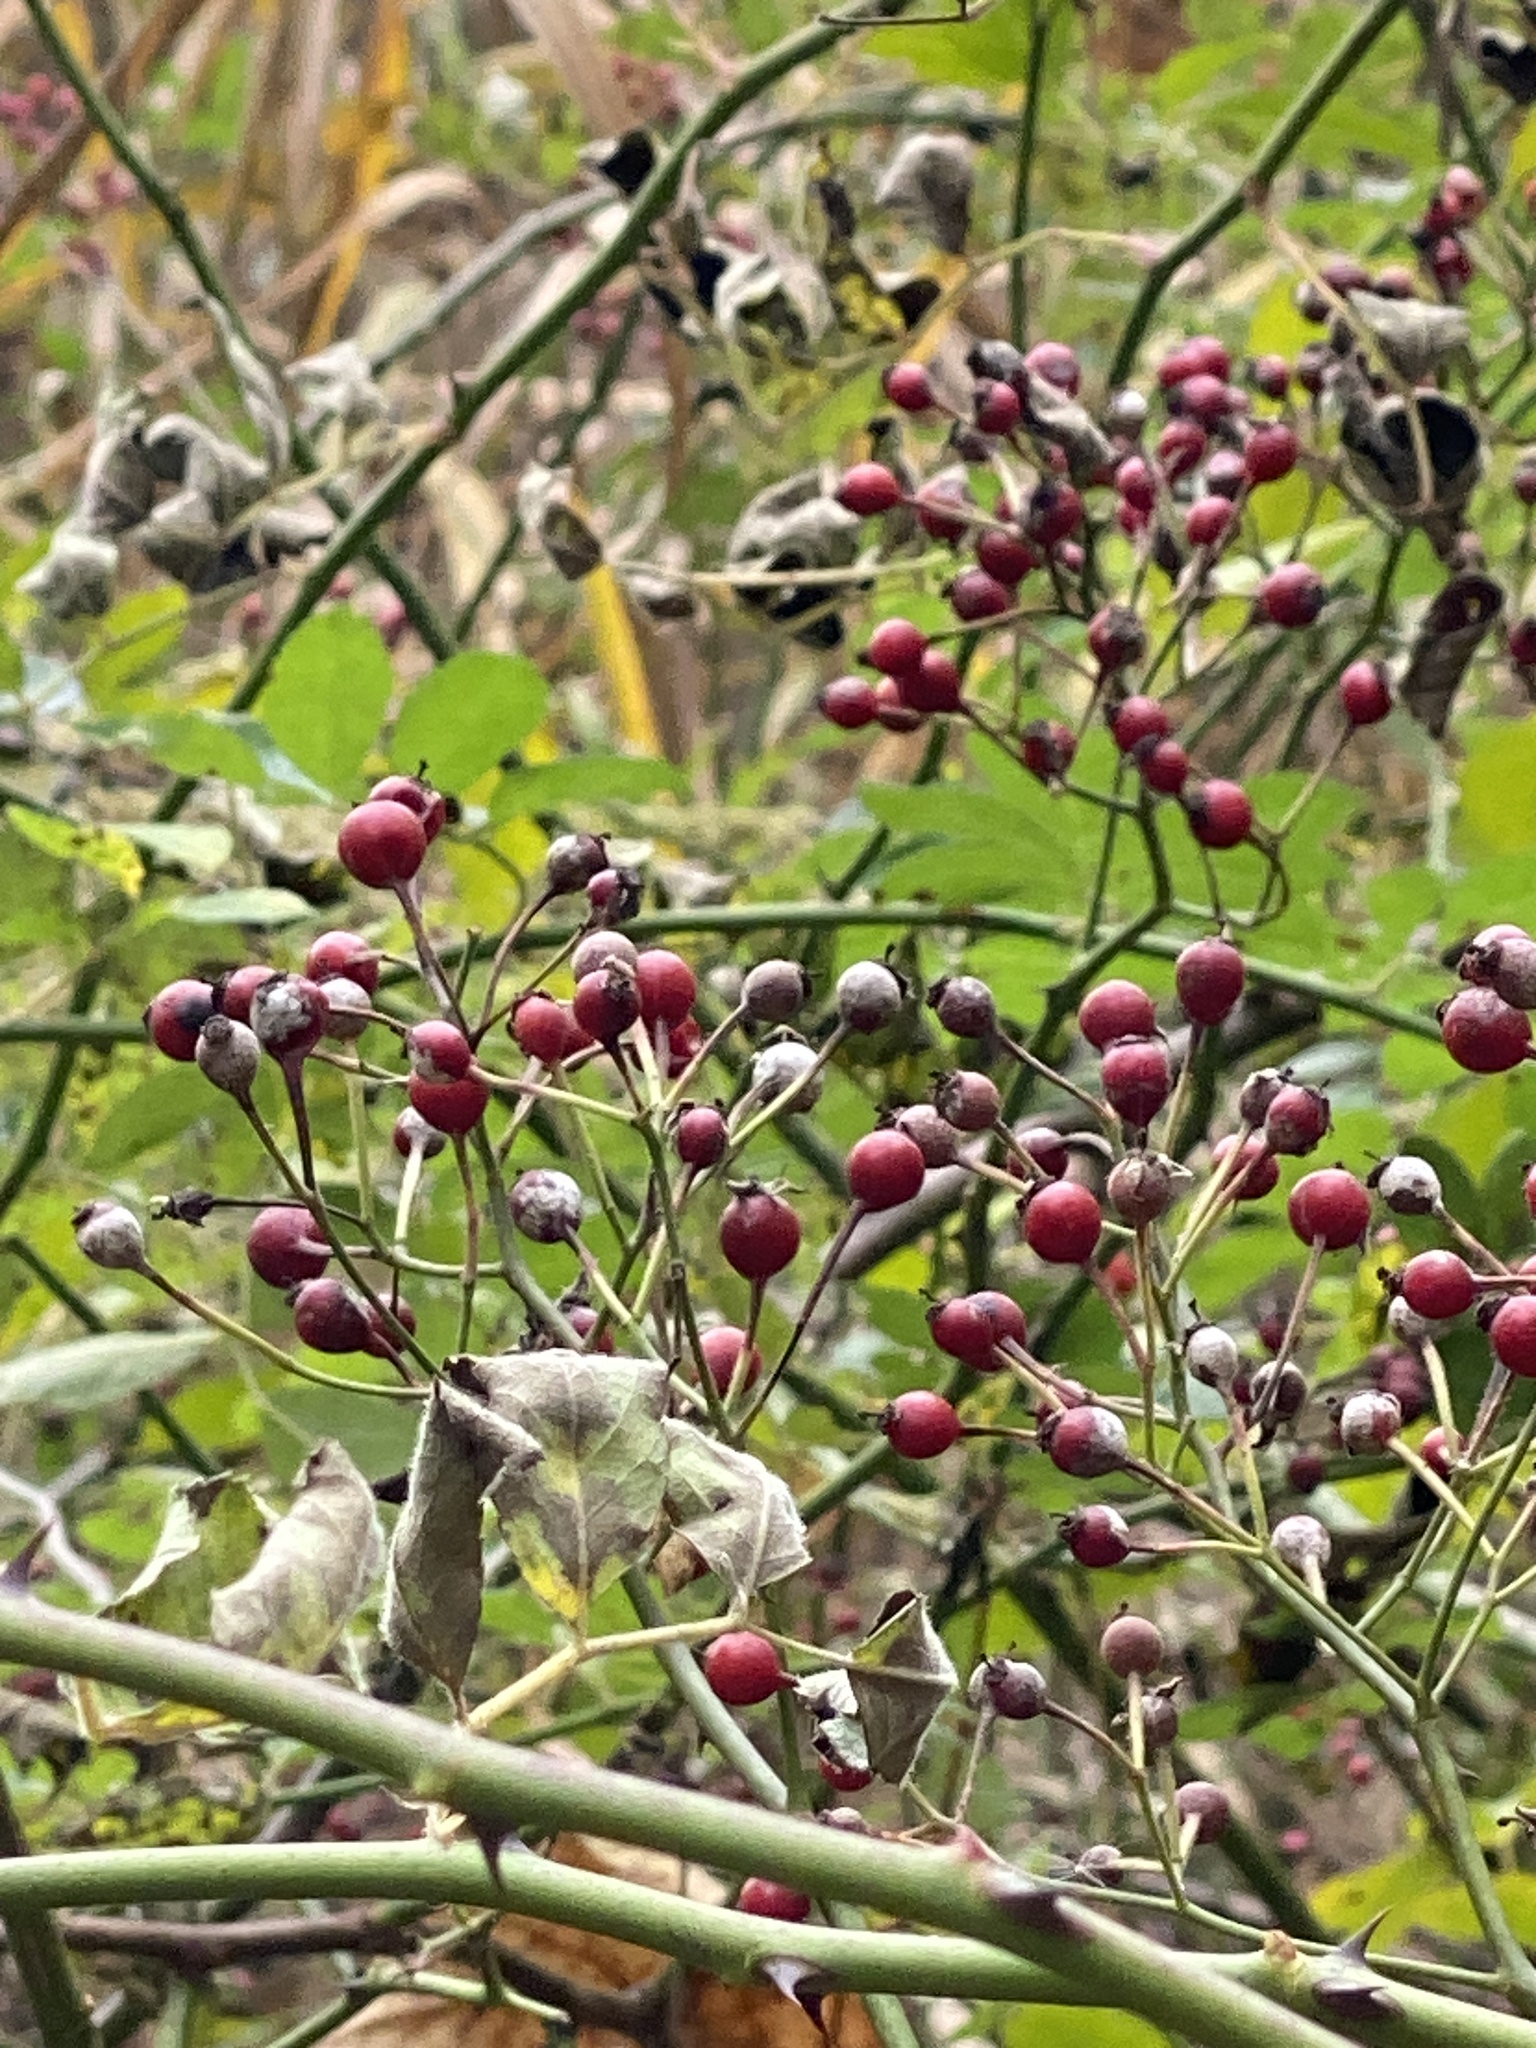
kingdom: Plantae
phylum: Tracheophyta
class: Magnoliopsida
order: Rosales
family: Rosaceae
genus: Rosa
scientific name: Rosa multiflora
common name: Multiflora rose
